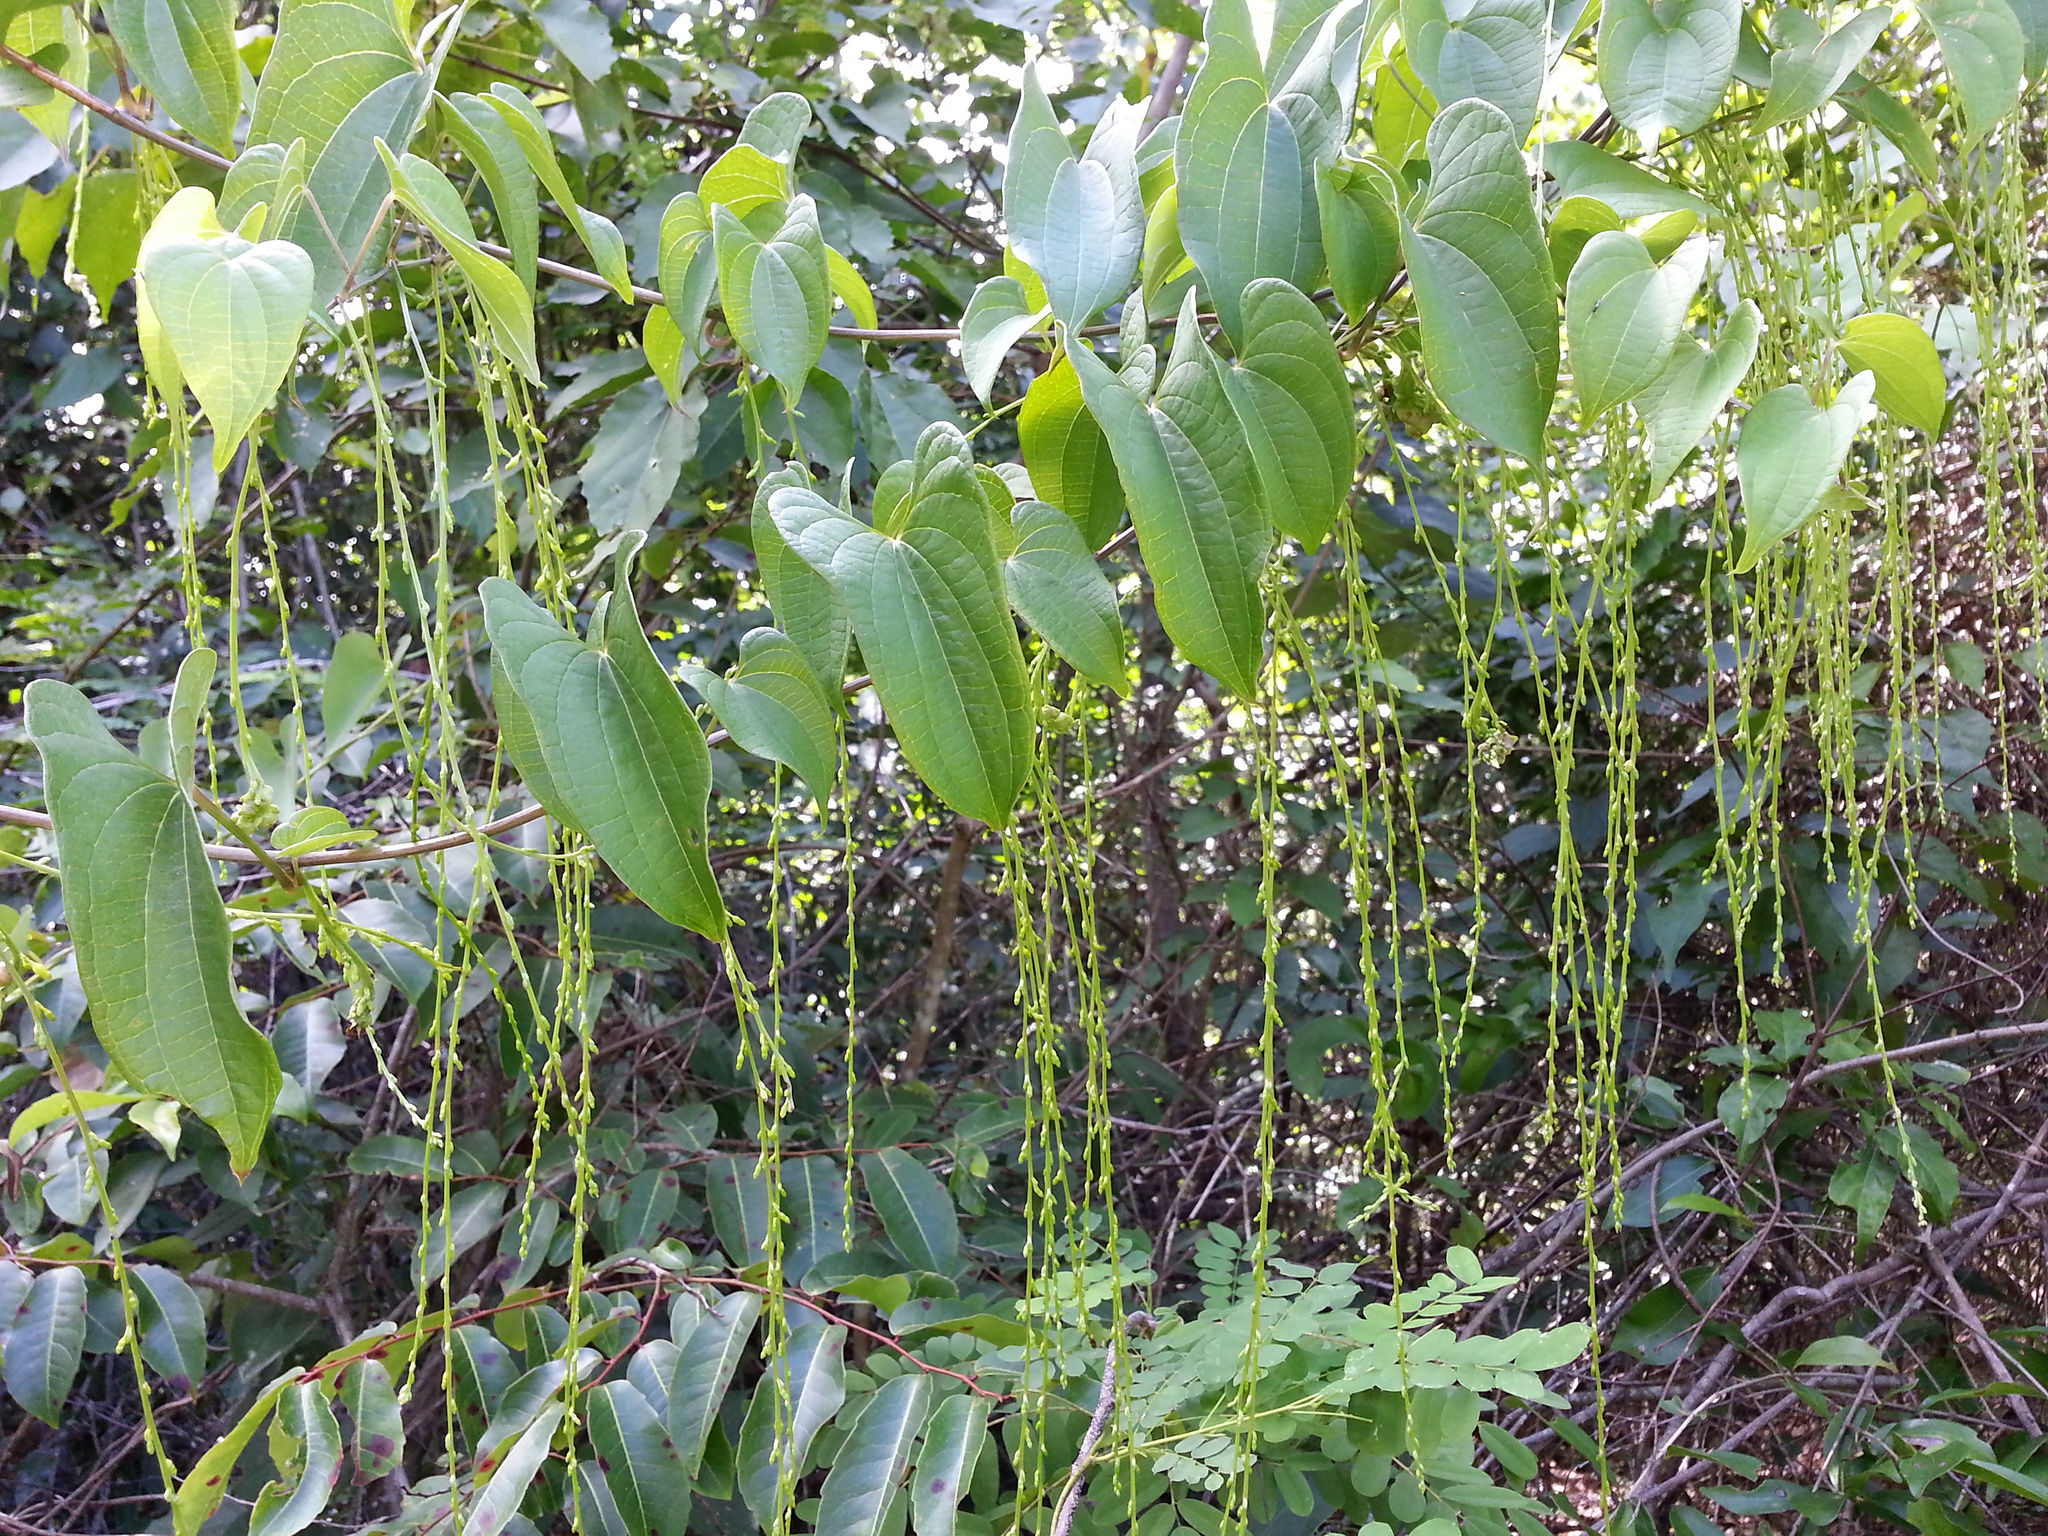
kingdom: Plantae
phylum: Tracheophyta
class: Liliopsida
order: Dioscoreales
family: Dioscoreaceae
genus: Dioscorea
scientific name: Dioscorea antaly
